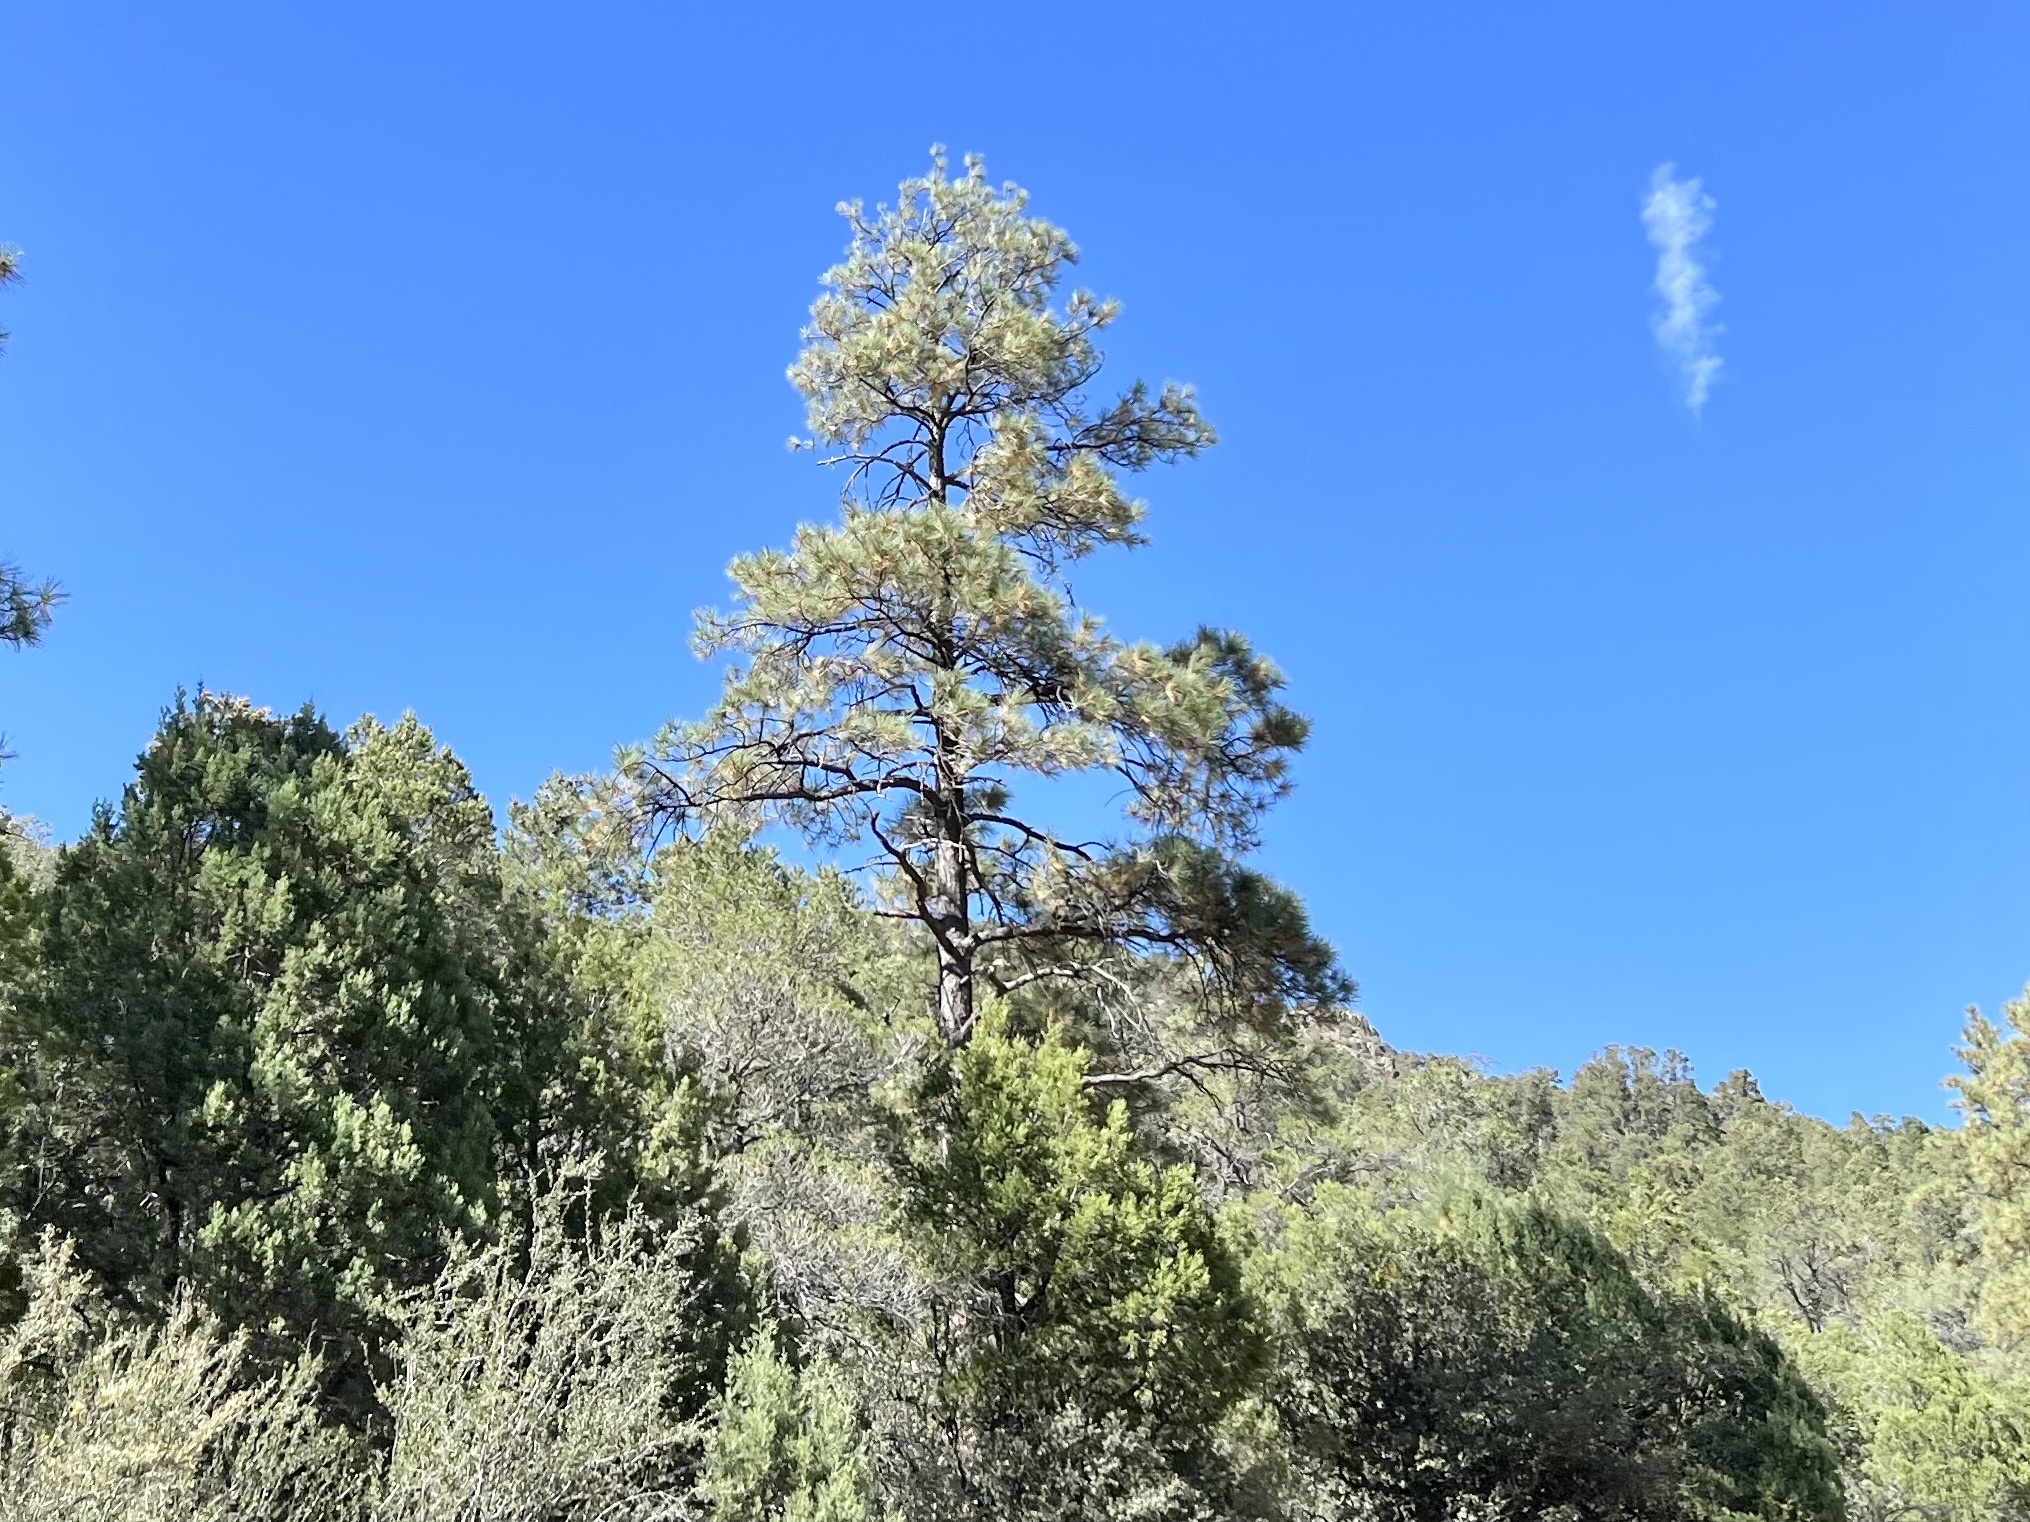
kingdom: Plantae
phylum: Tracheophyta
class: Pinopsida
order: Pinales
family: Pinaceae
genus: Pinus
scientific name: Pinus ponderosa
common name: Western yellow-pine
